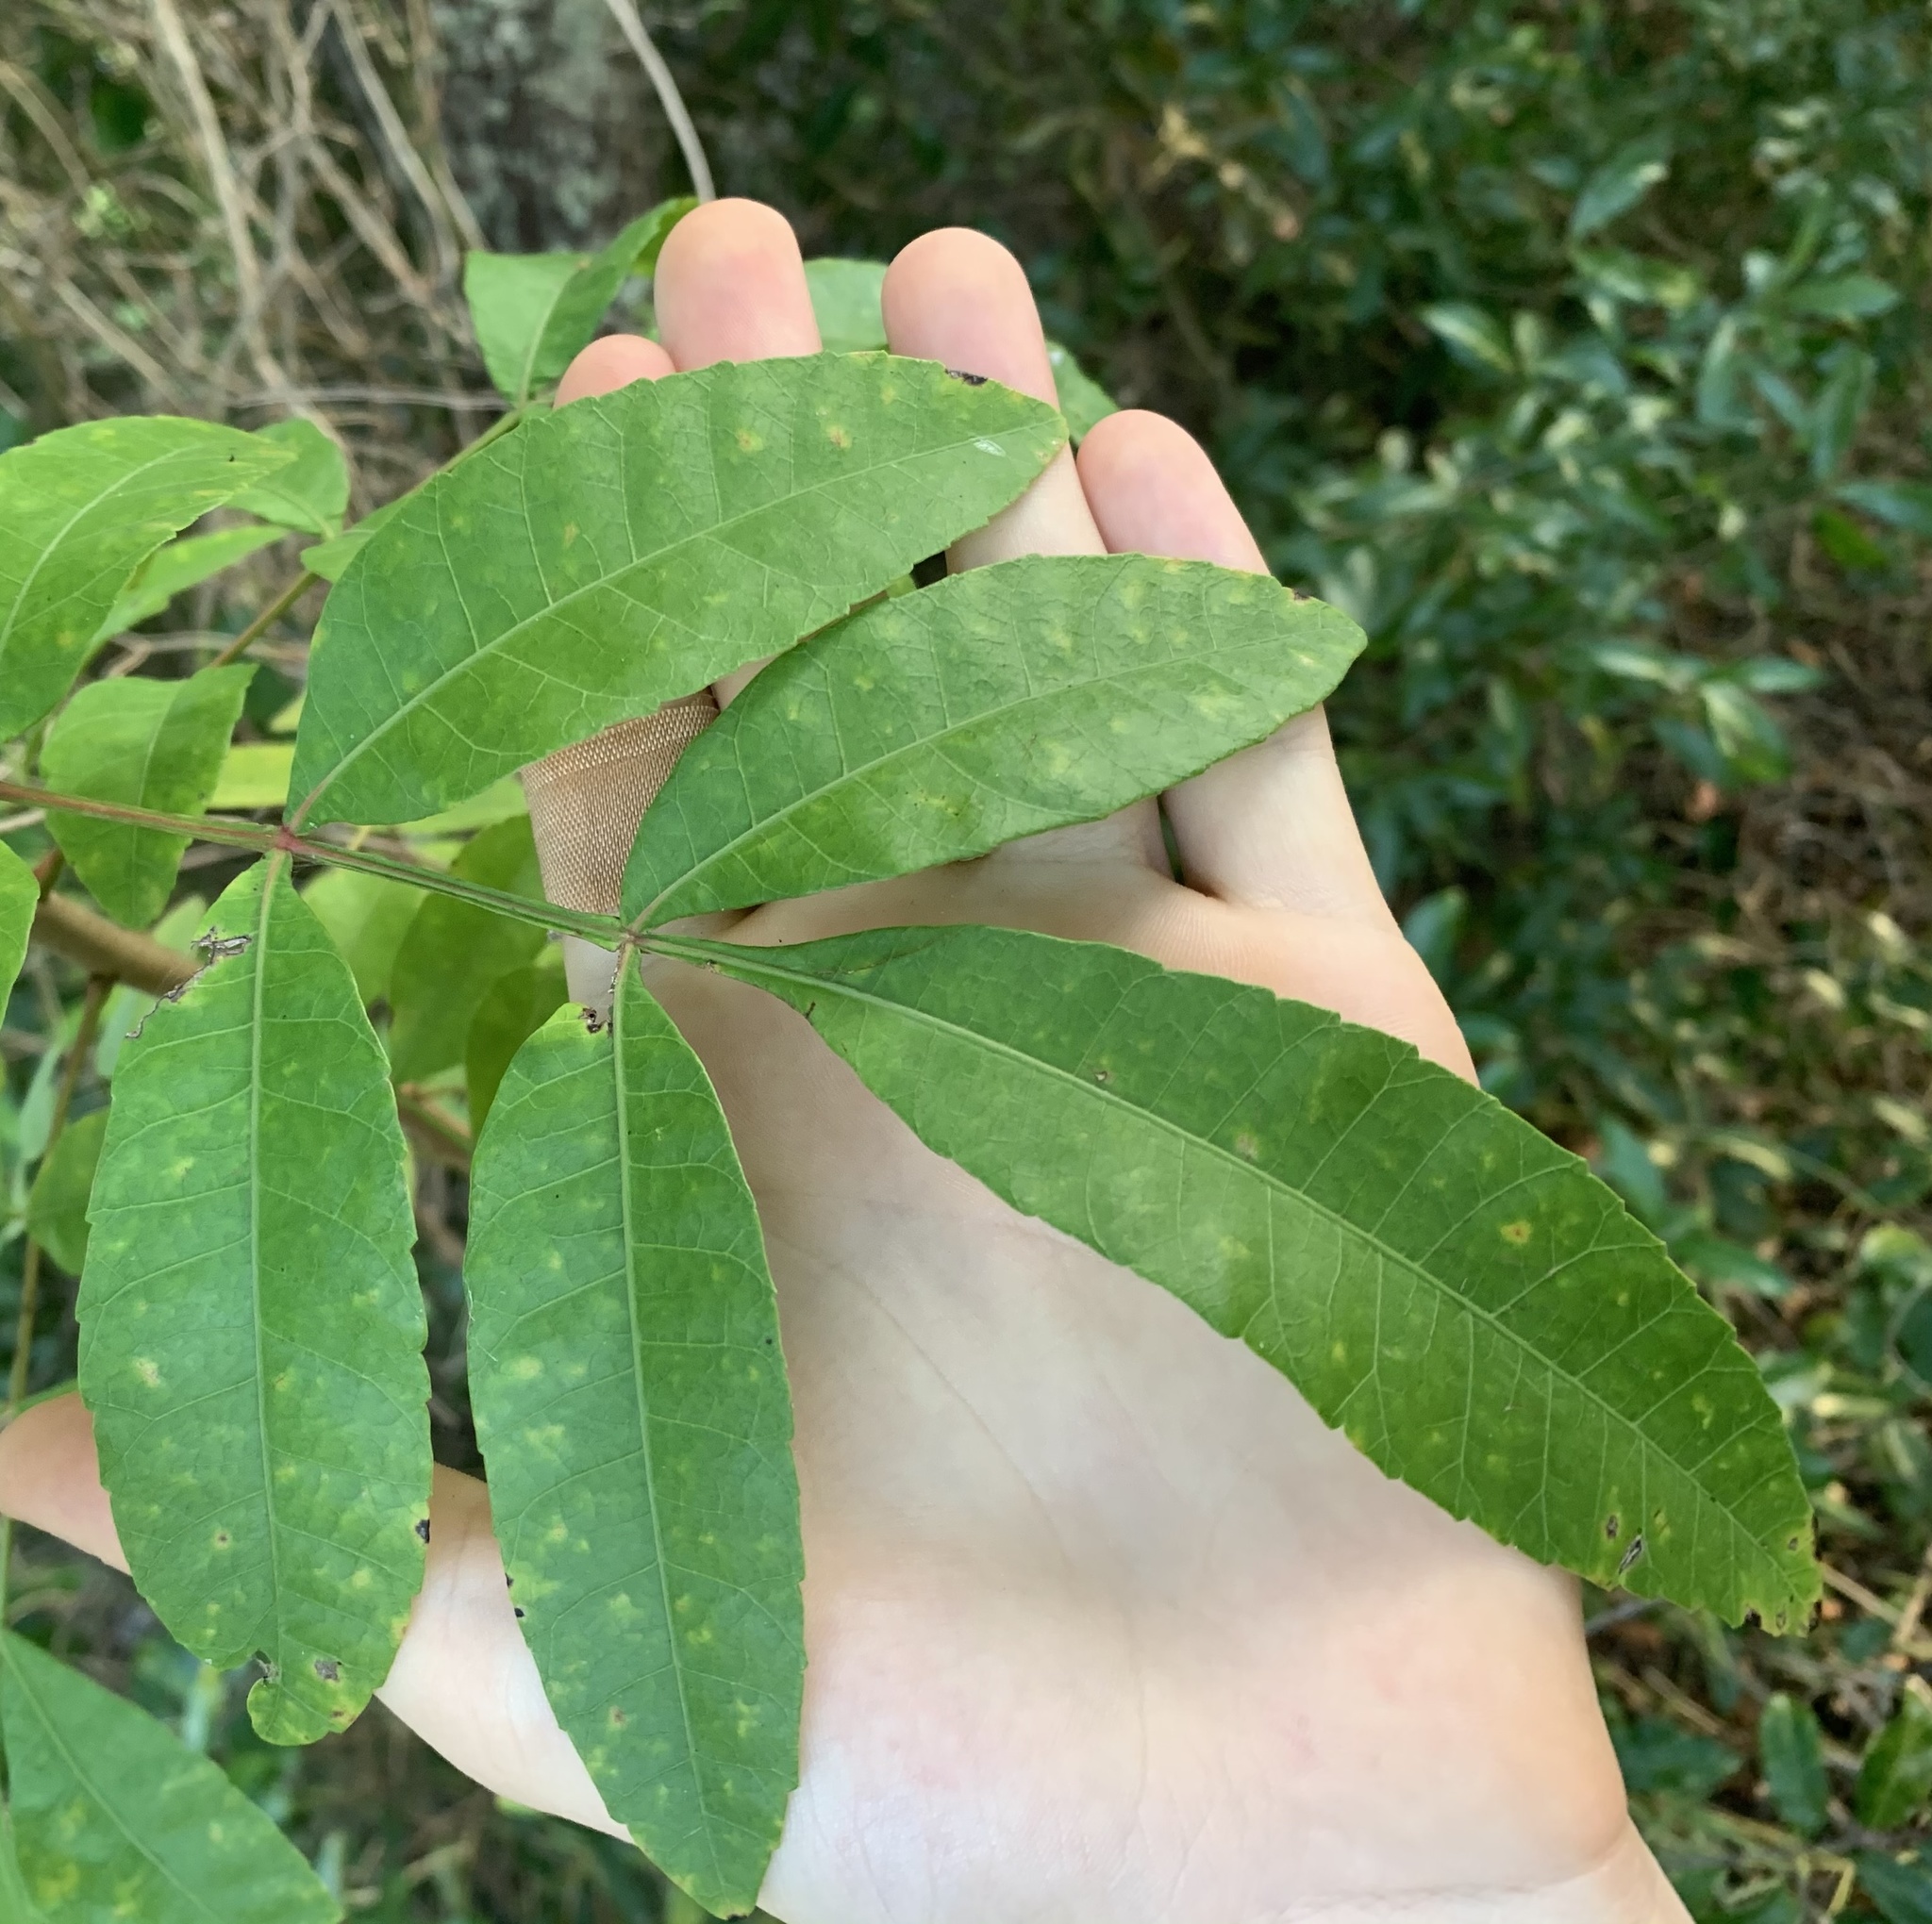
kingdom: Plantae
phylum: Tracheophyta
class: Magnoliopsida
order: Sapindales
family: Anacardiaceae
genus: Schinus
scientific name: Schinus terebinthifolia
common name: Brazilian peppertree
